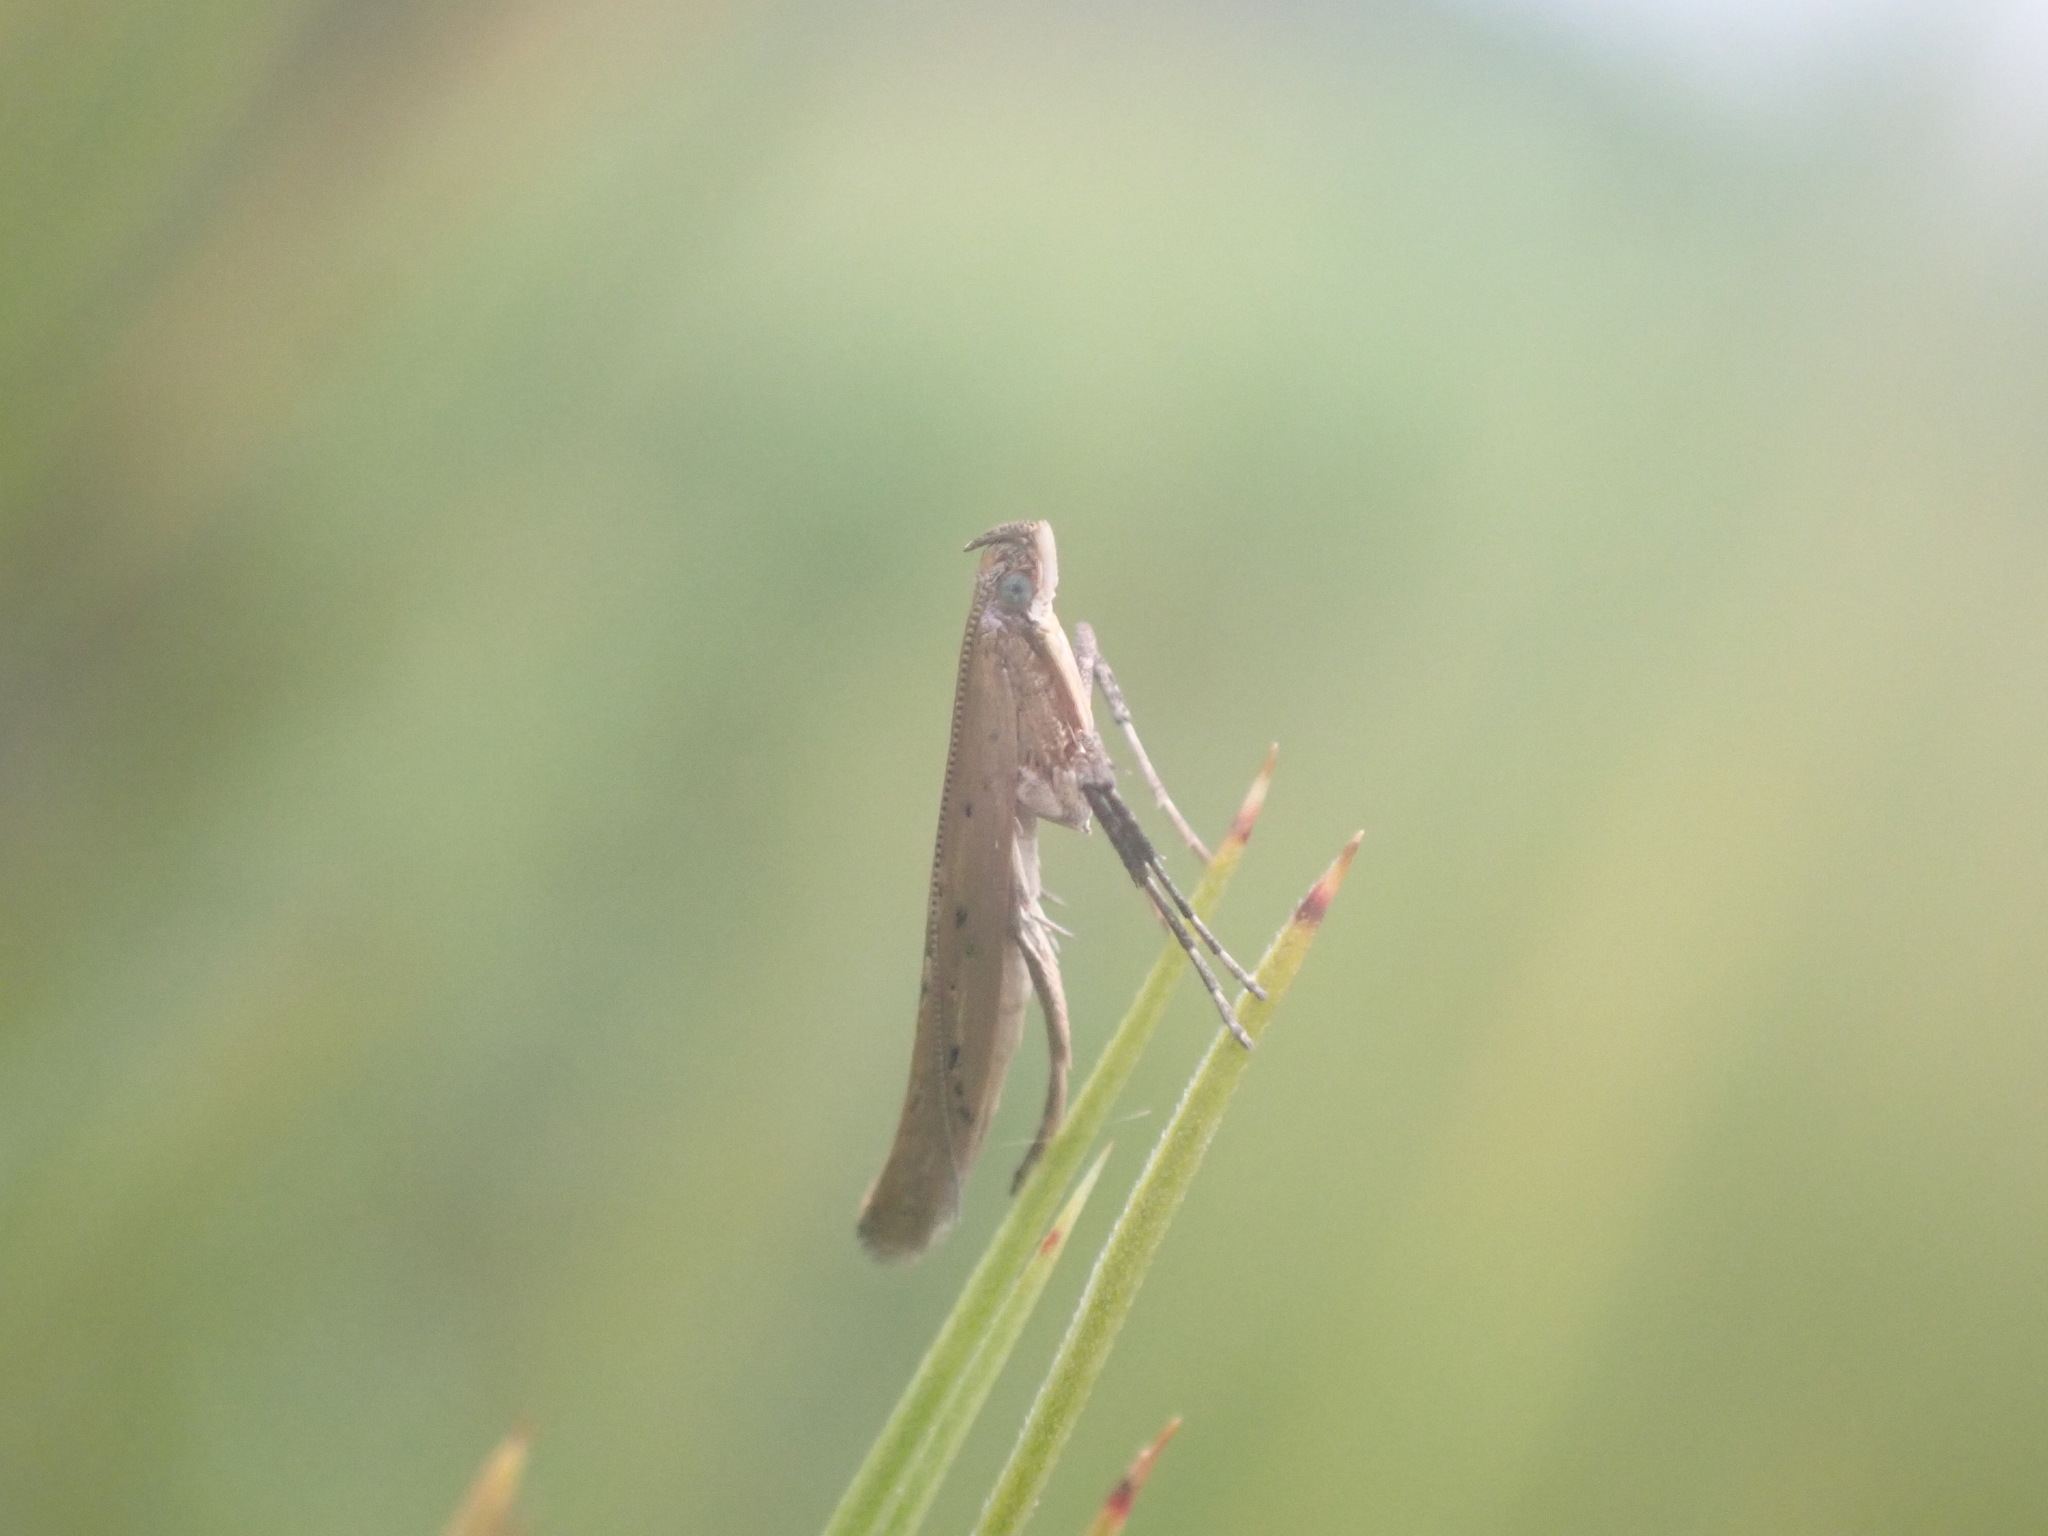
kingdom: Animalia
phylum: Arthropoda
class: Insecta
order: Lepidoptera
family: Gracillariidae
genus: Caloptilia
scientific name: Caloptilia elaeas
